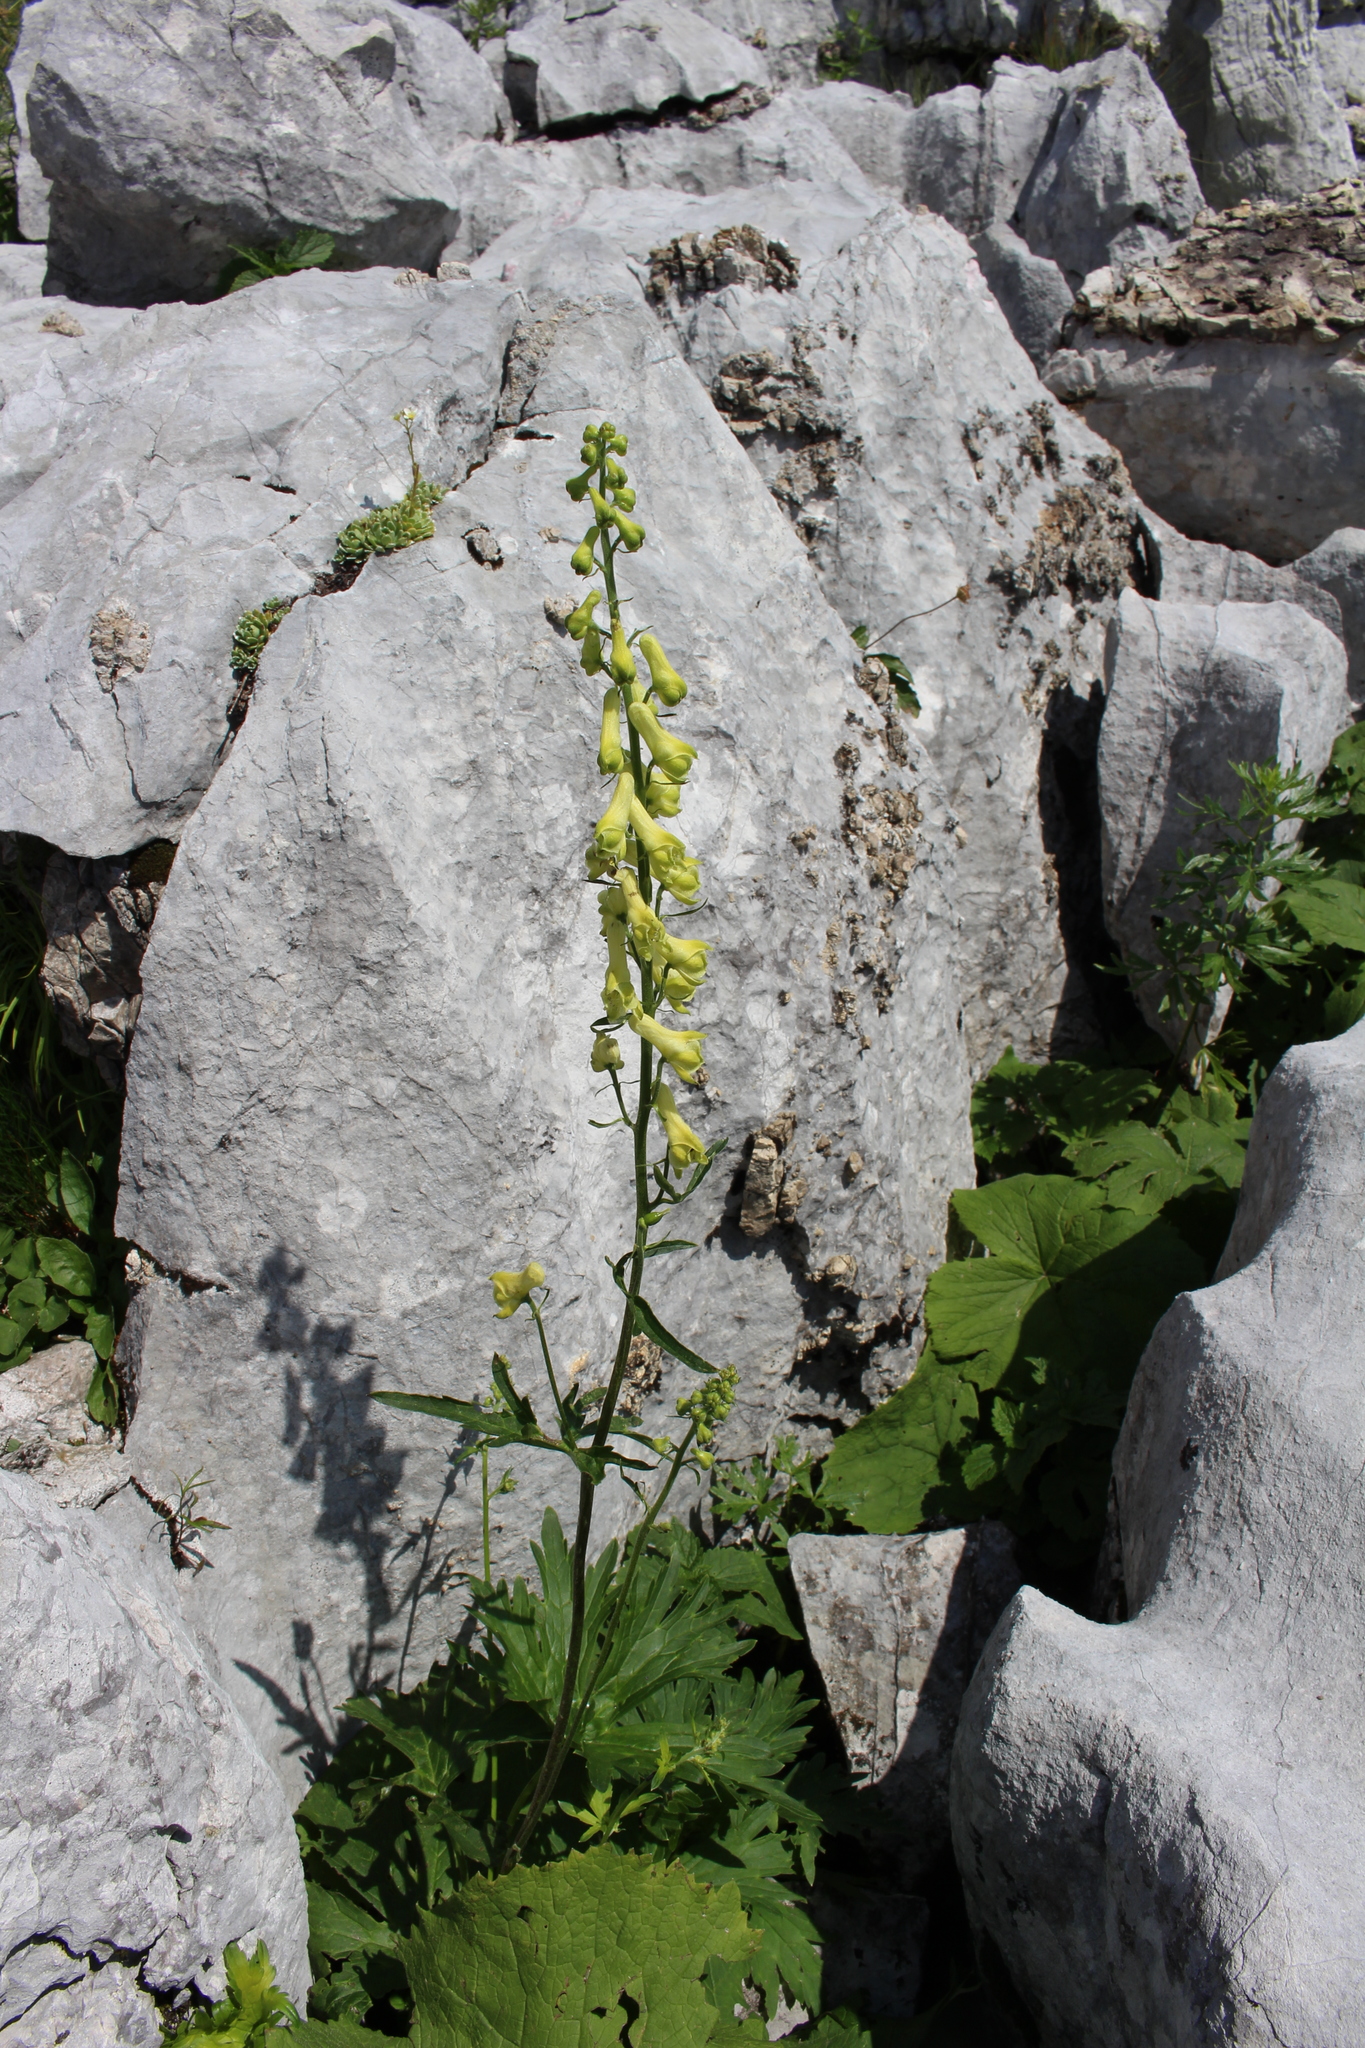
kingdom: Plantae
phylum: Tracheophyta
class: Magnoliopsida
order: Ranunculales
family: Ranunculaceae
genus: Aconitum
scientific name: Aconitum lycoctonum
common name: Wolf's-bane
